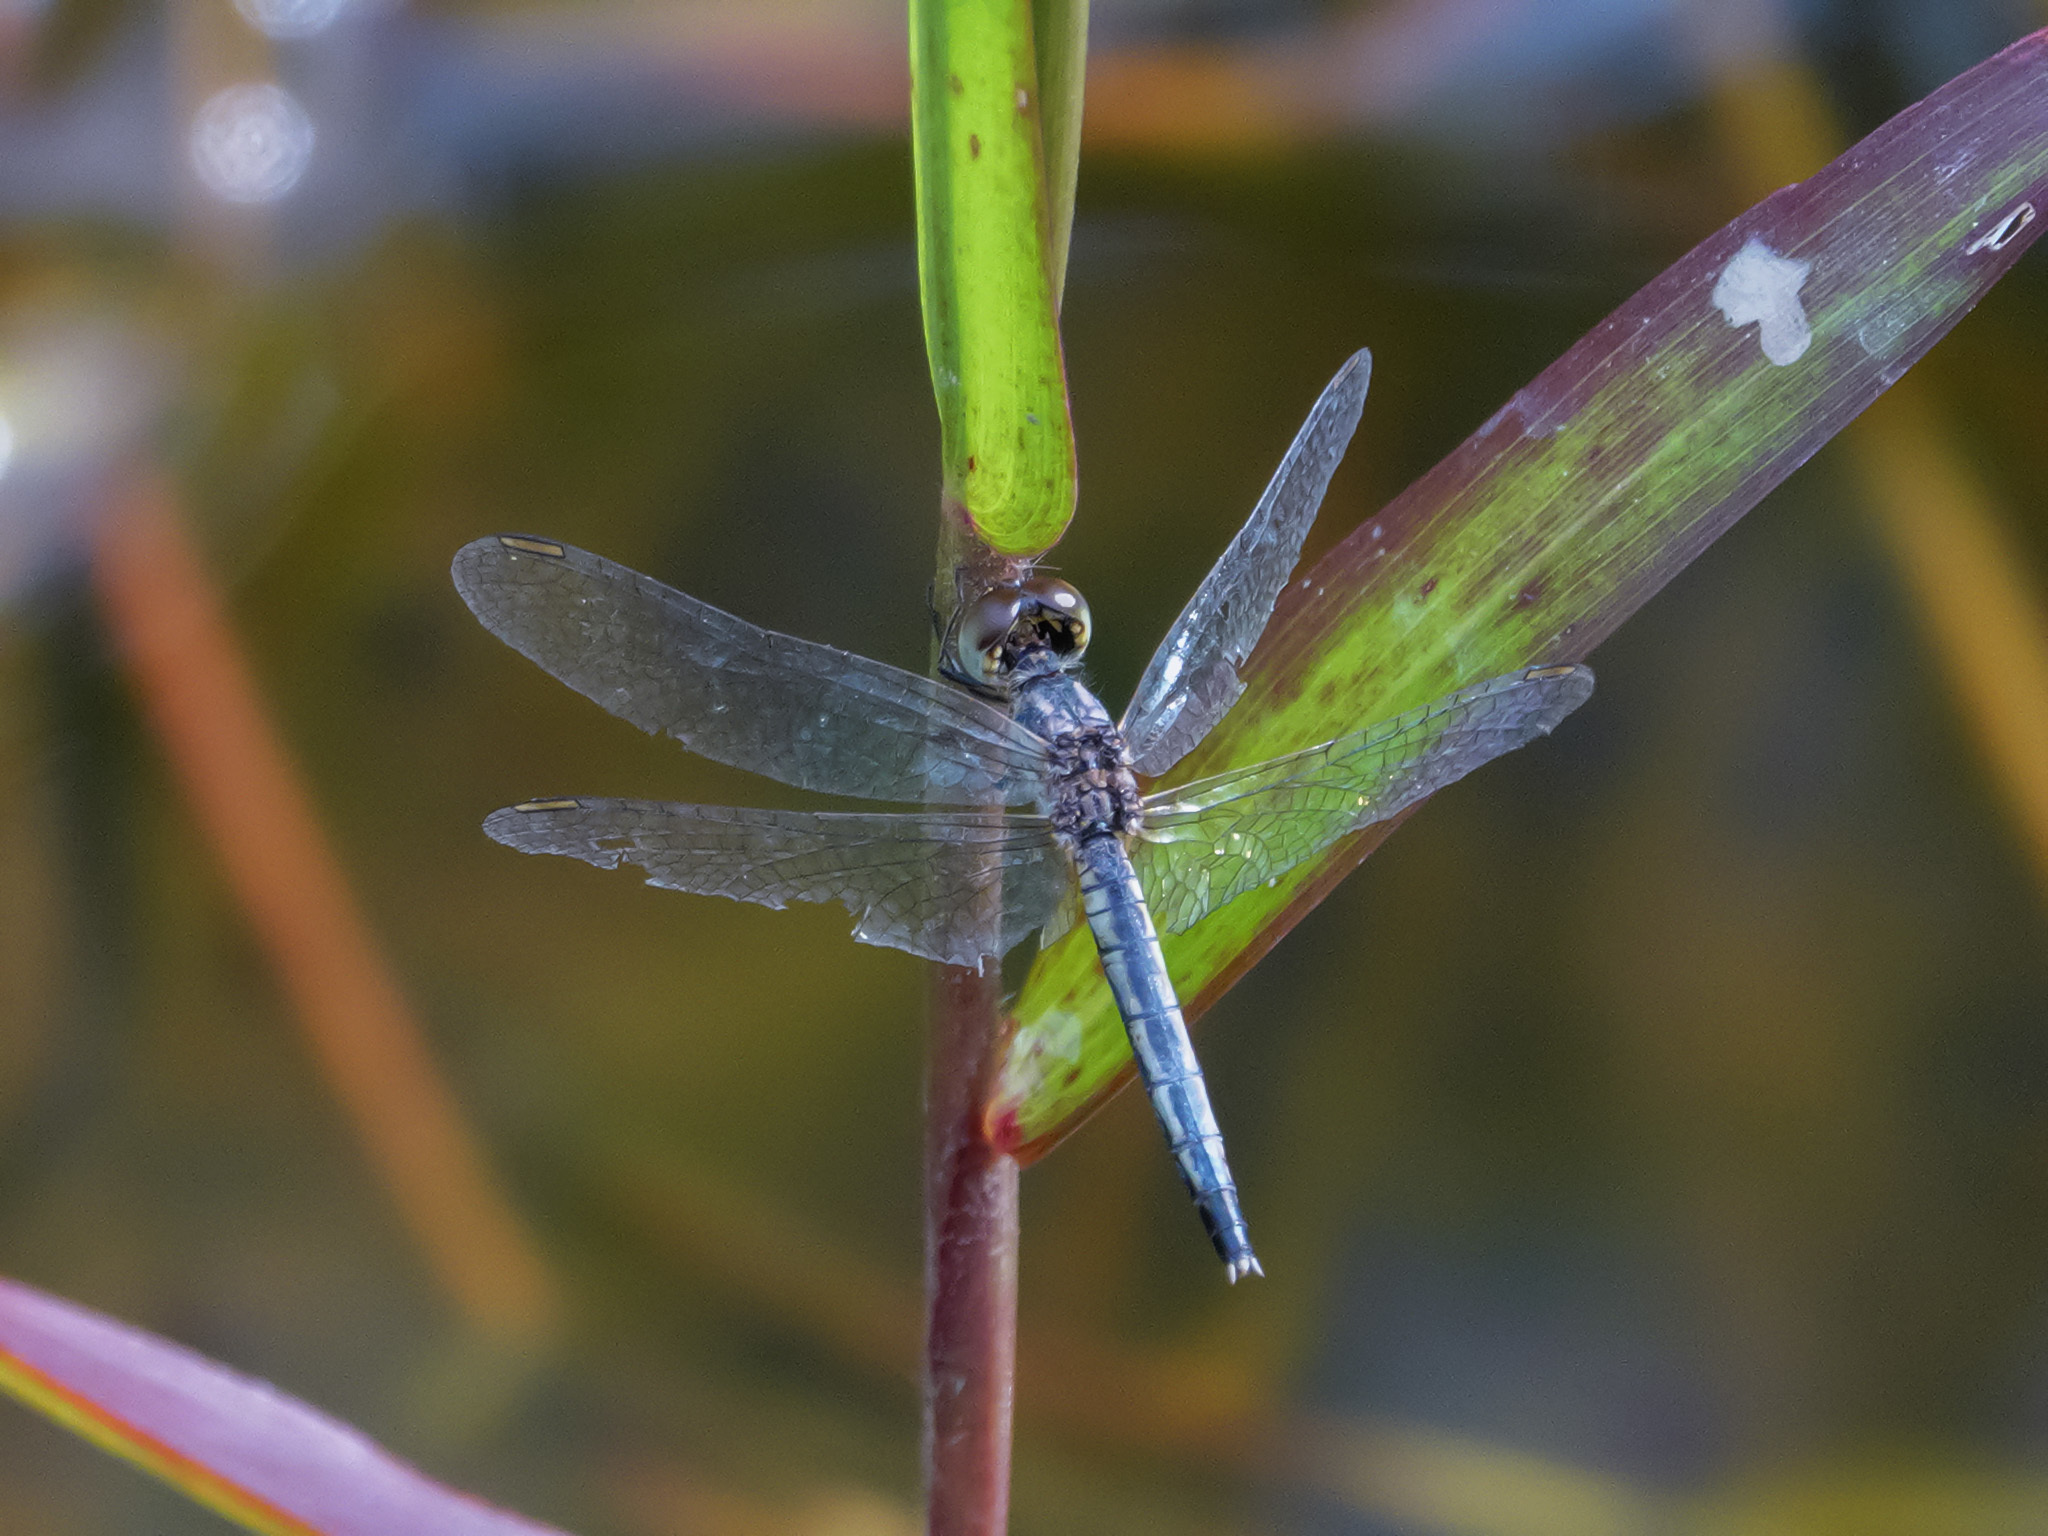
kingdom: Animalia
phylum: Arthropoda
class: Insecta
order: Odonata
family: Libellulidae
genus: Diplacodes
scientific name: Diplacodes nebulosa
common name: Black-tipped percher
